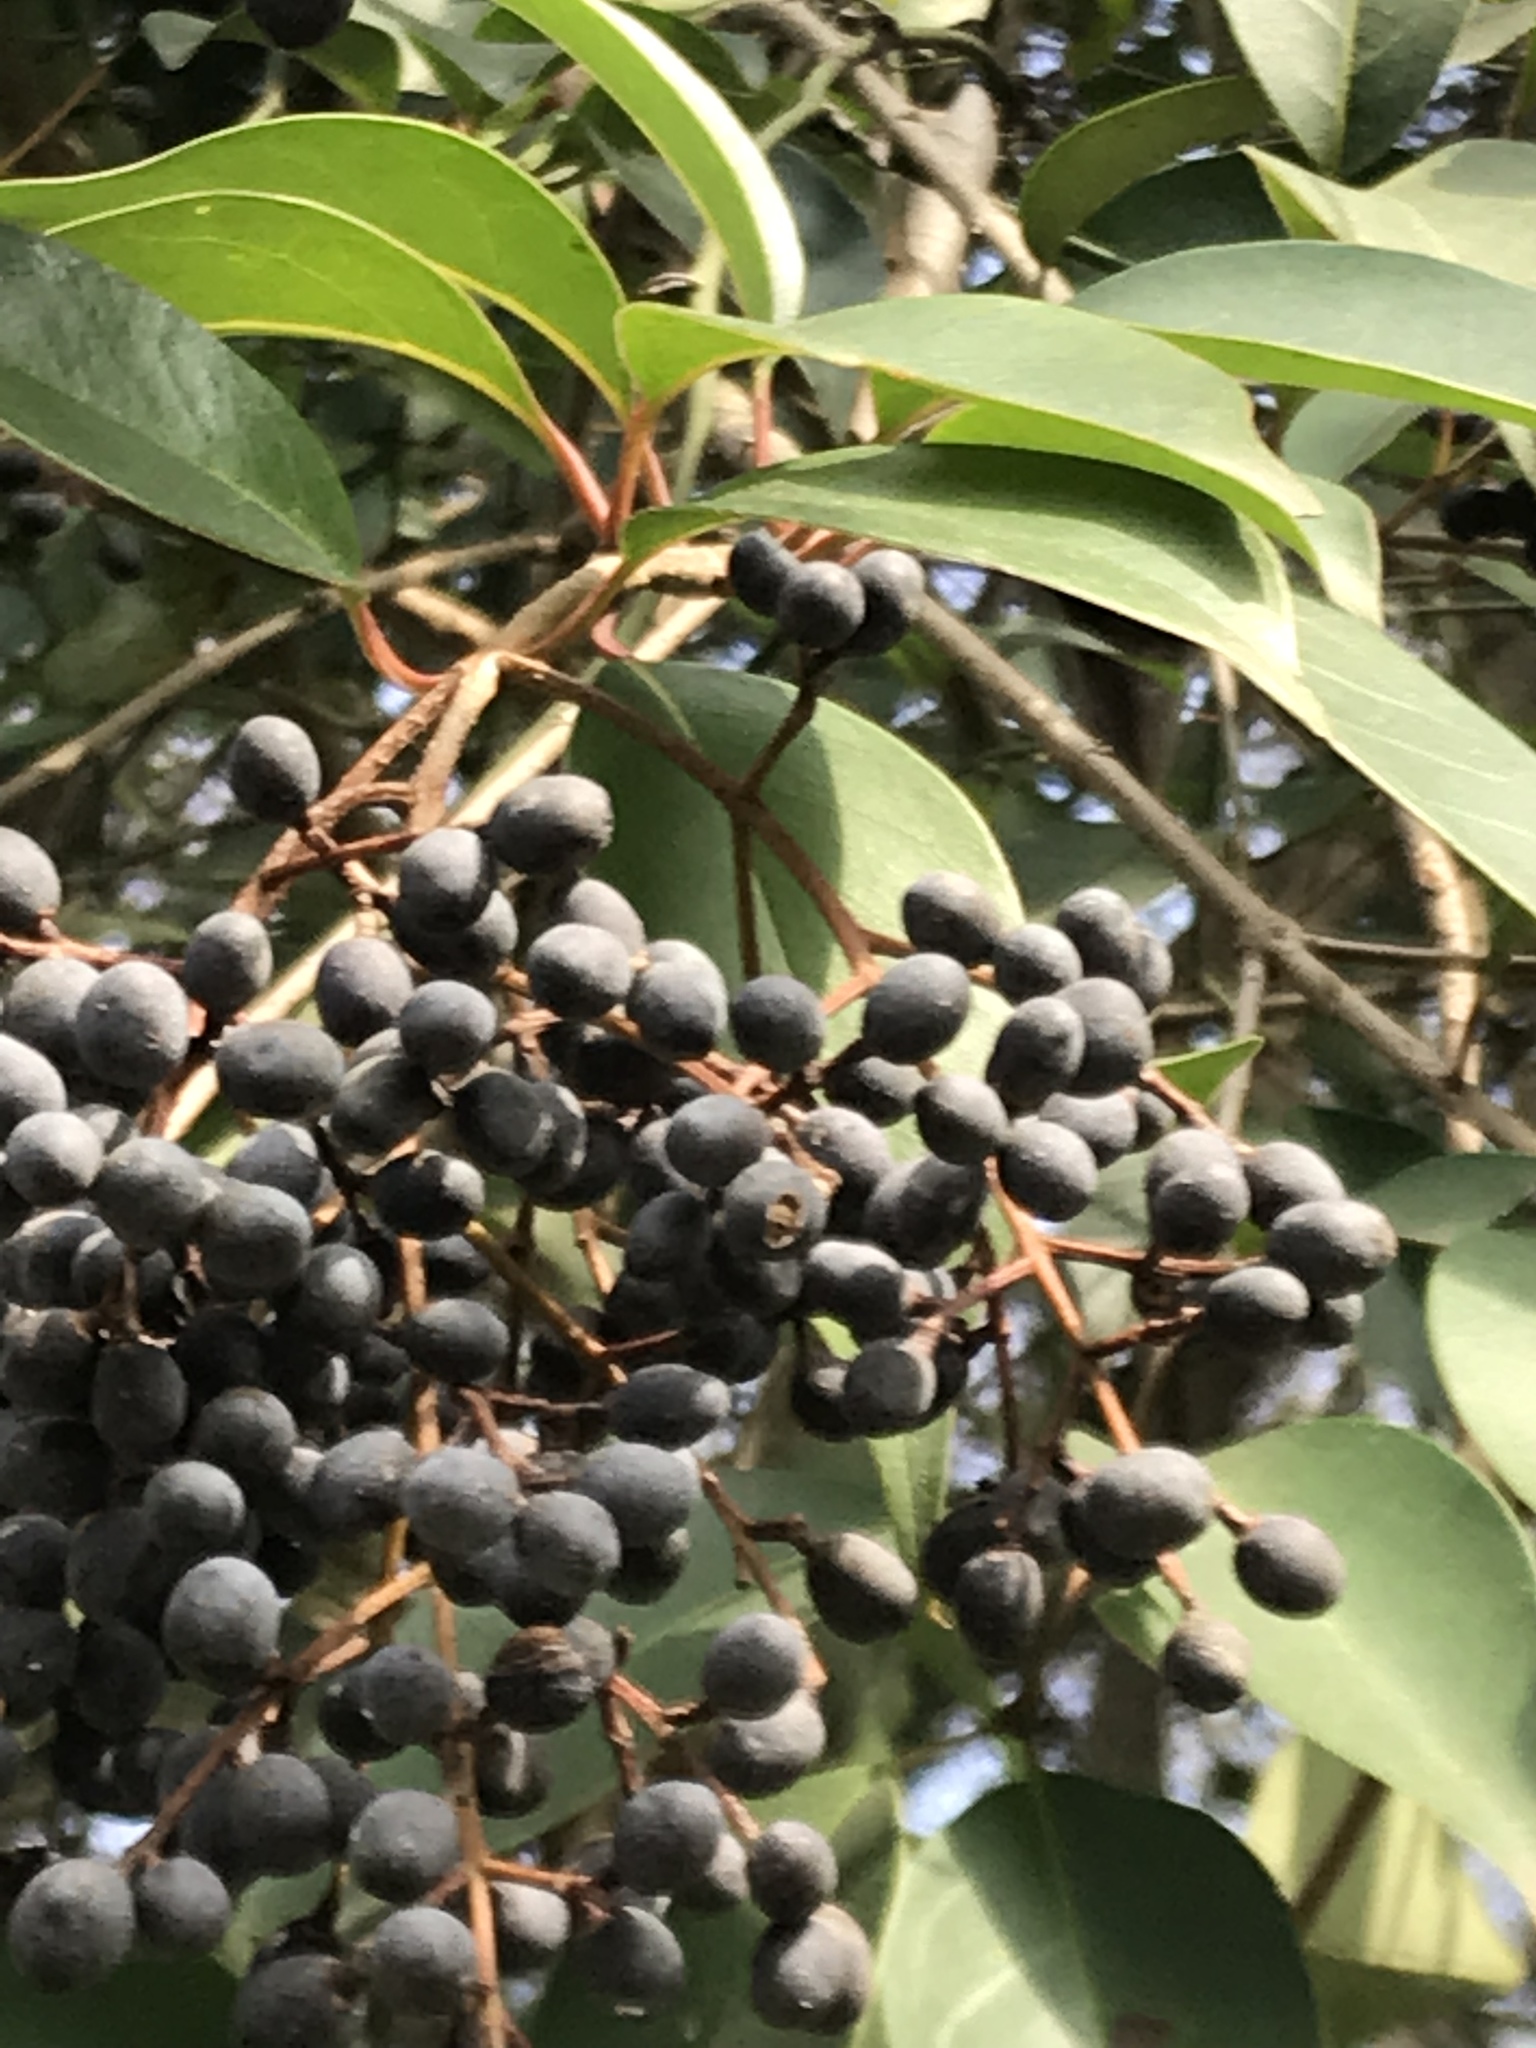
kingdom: Plantae
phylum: Tracheophyta
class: Magnoliopsida
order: Lamiales
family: Oleaceae
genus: Ligustrum
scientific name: Ligustrum lucidum
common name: Glossy privet
